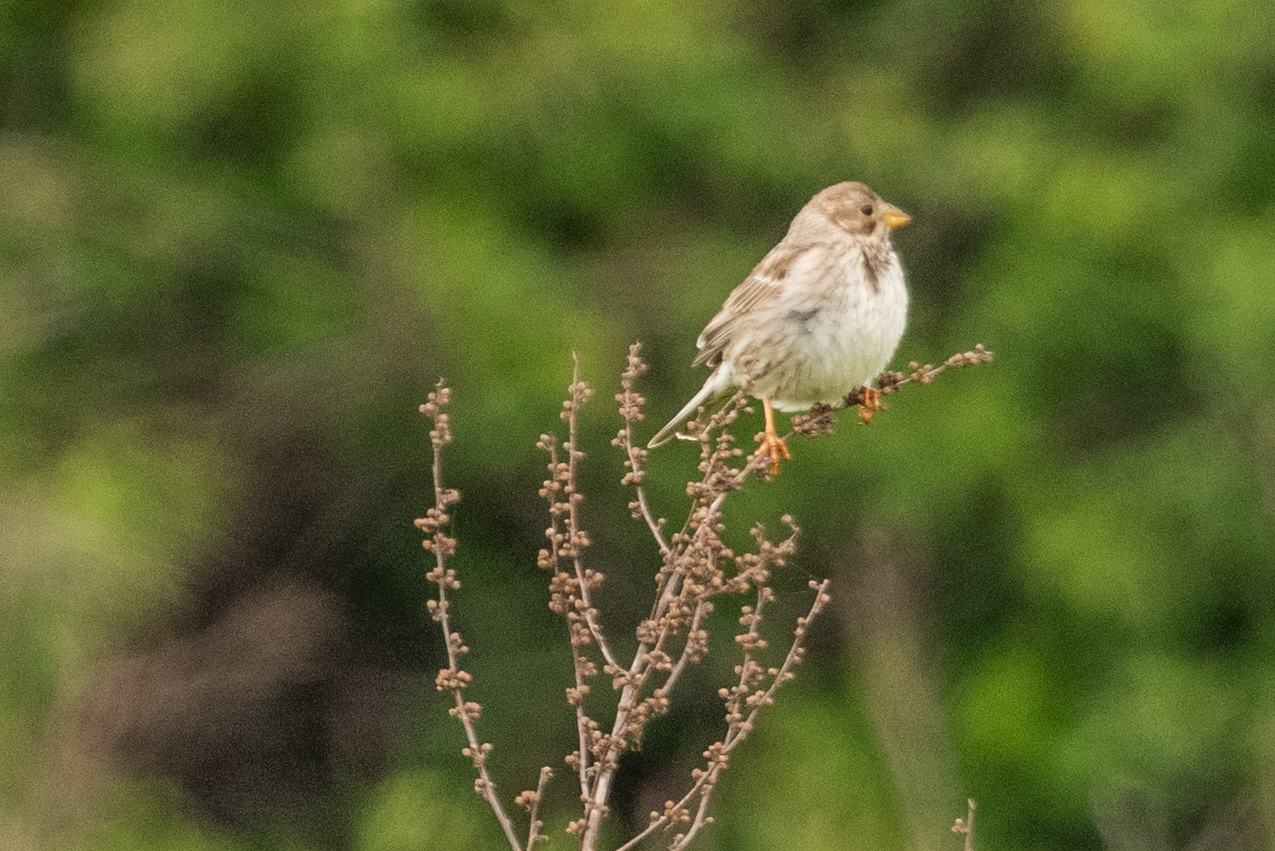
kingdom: Animalia
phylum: Chordata
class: Aves
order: Passeriformes
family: Emberizidae
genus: Emberiza
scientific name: Emberiza calandra
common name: Corn bunting
